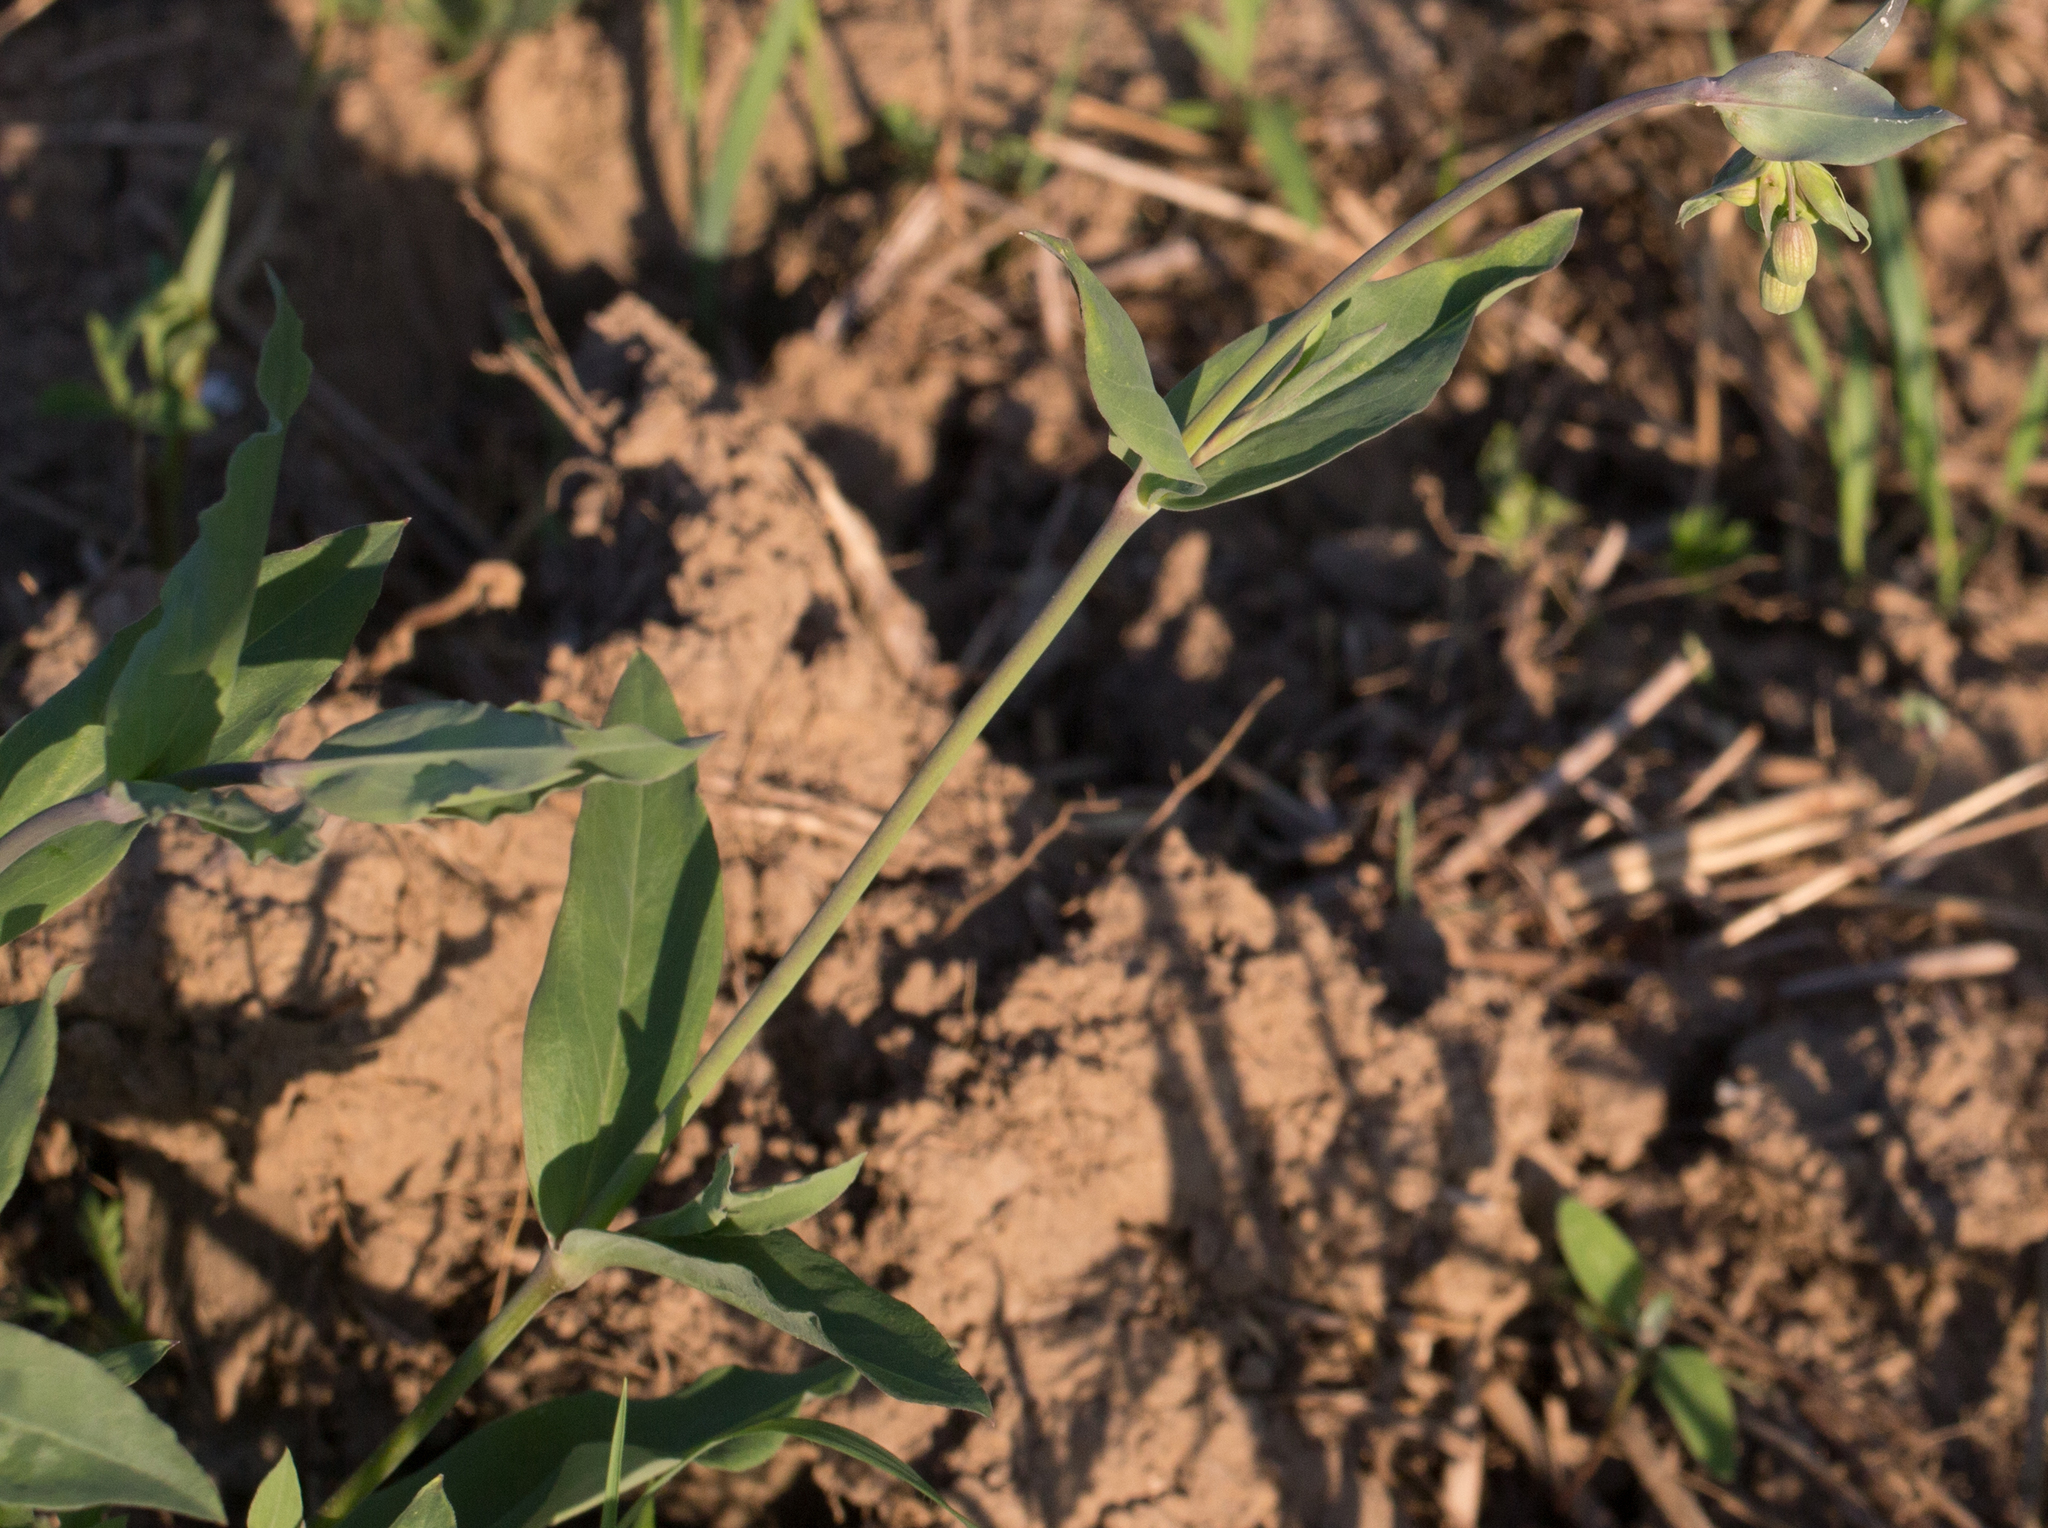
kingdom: Plantae
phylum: Tracheophyta
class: Magnoliopsida
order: Caryophyllales
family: Caryophyllaceae
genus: Silene
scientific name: Silene vulgaris
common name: Bladder campion
